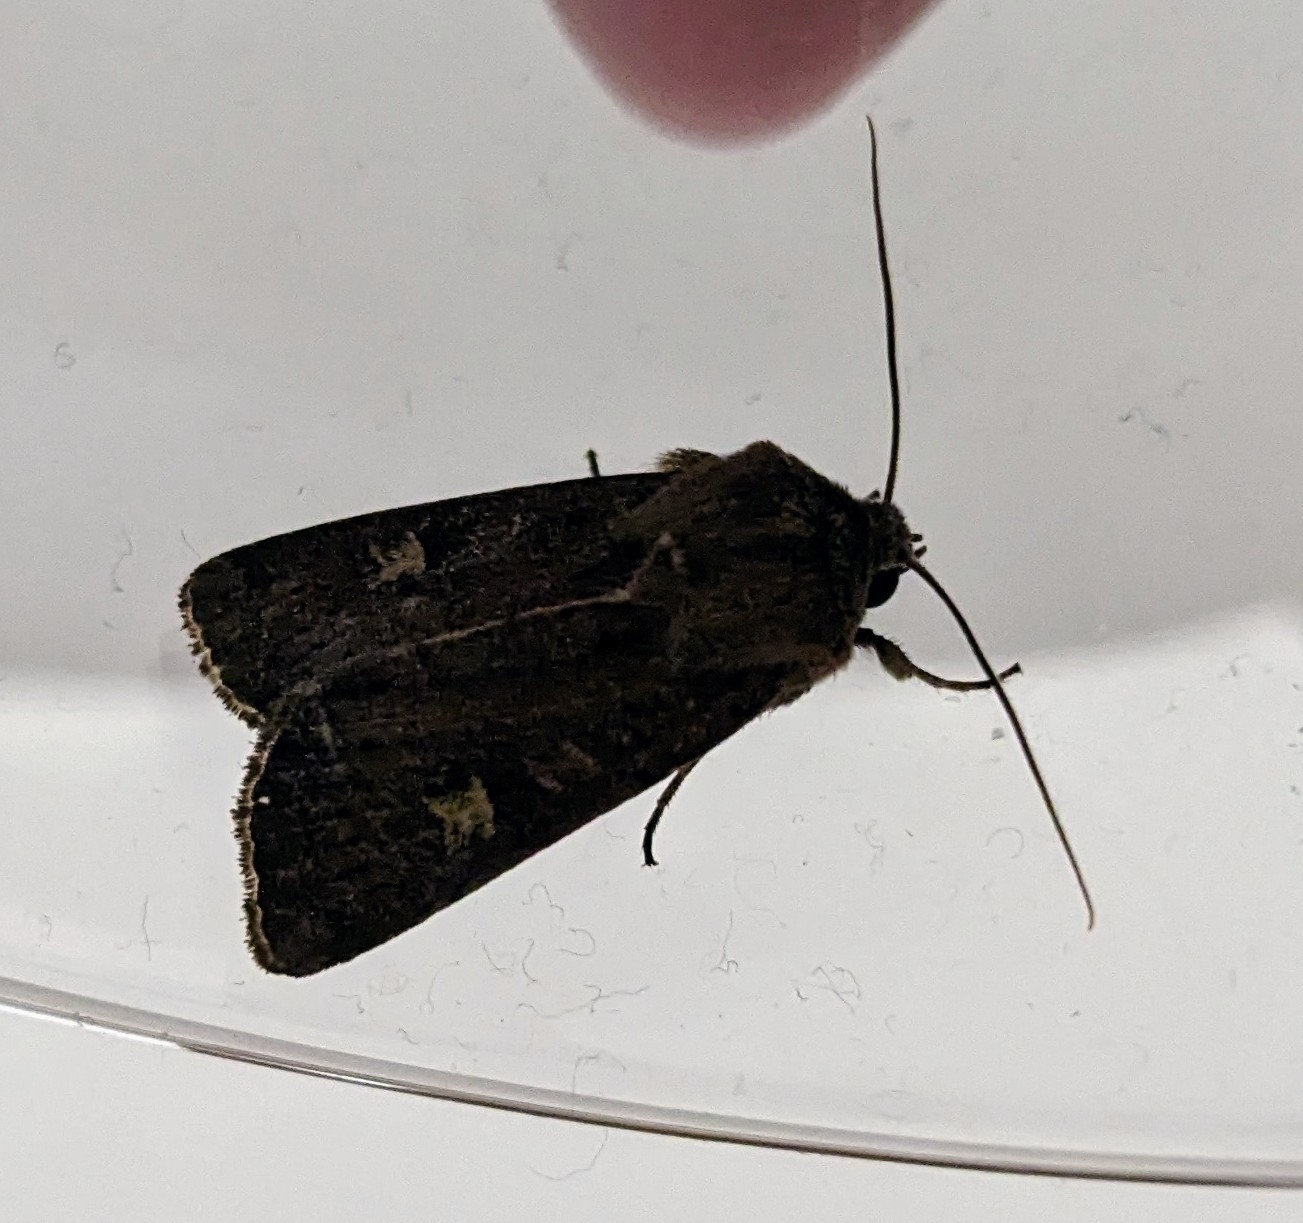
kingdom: Animalia
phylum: Arthropoda
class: Insecta
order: Lepidoptera
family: Noctuidae
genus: Xestia
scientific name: Xestia xanthographa
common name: Square-spot rustic
